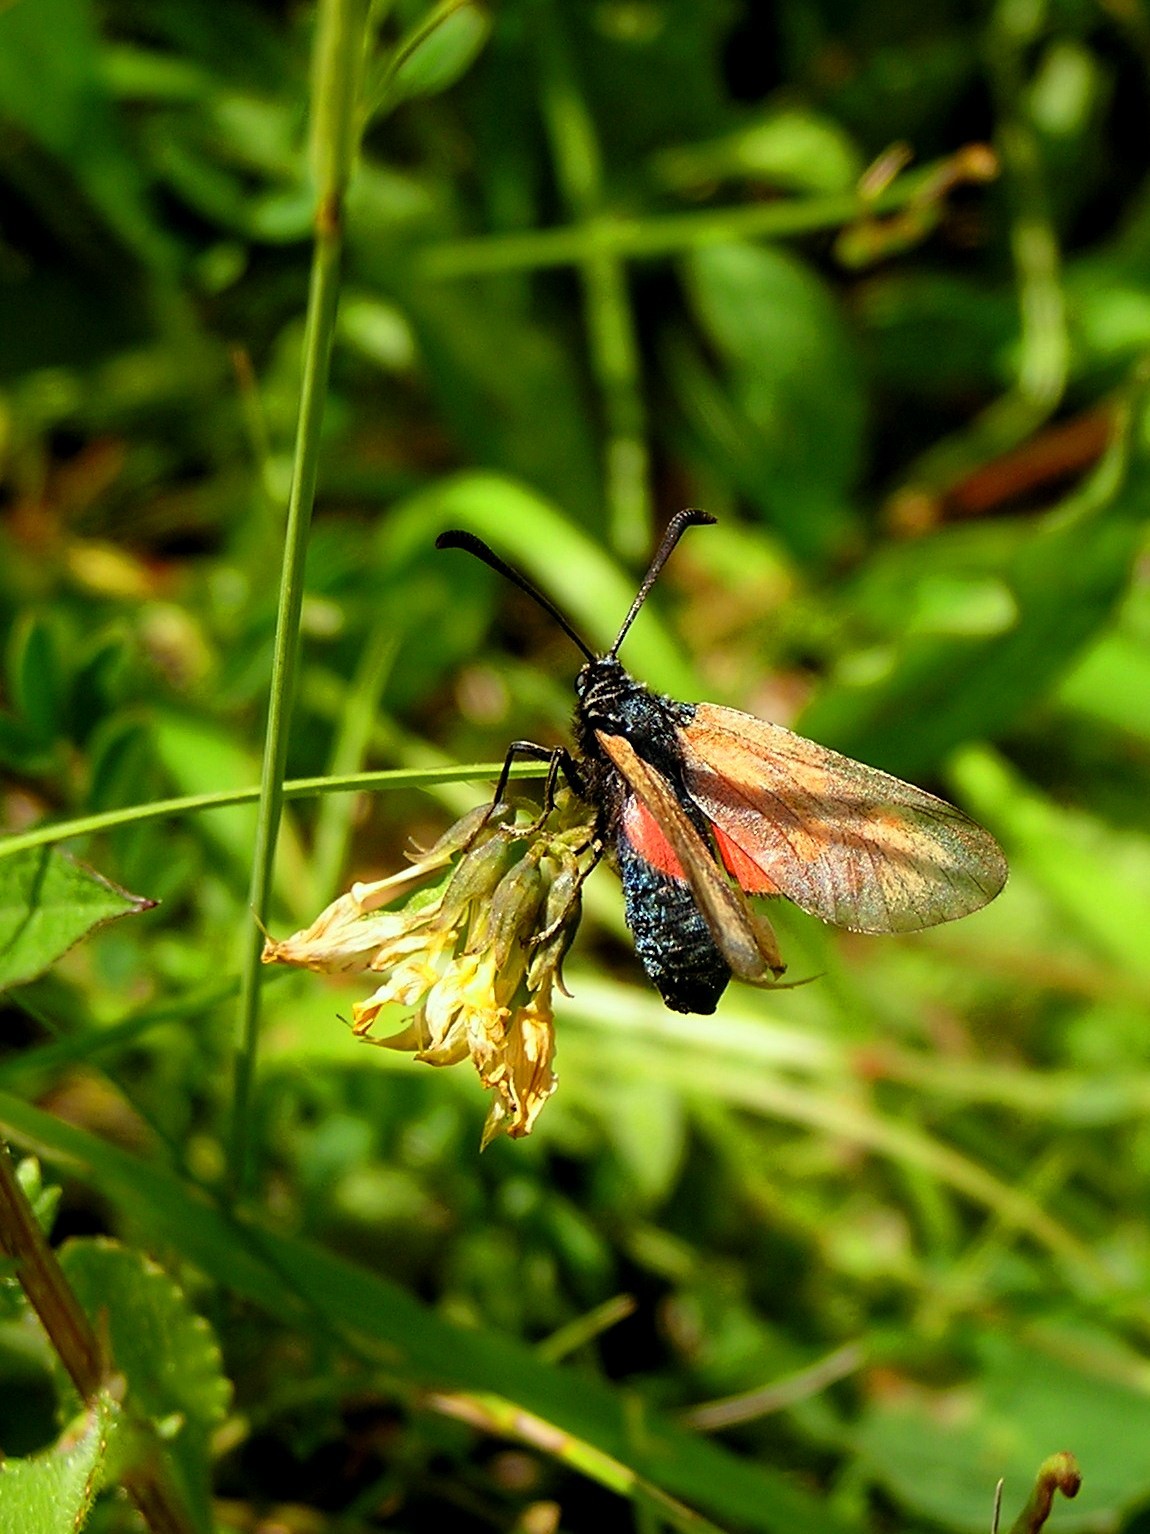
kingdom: Animalia
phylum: Arthropoda
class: Insecta
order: Lepidoptera
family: Zygaenidae
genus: Zygaena
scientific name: Zygaena loti
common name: Slender scotch burnet
